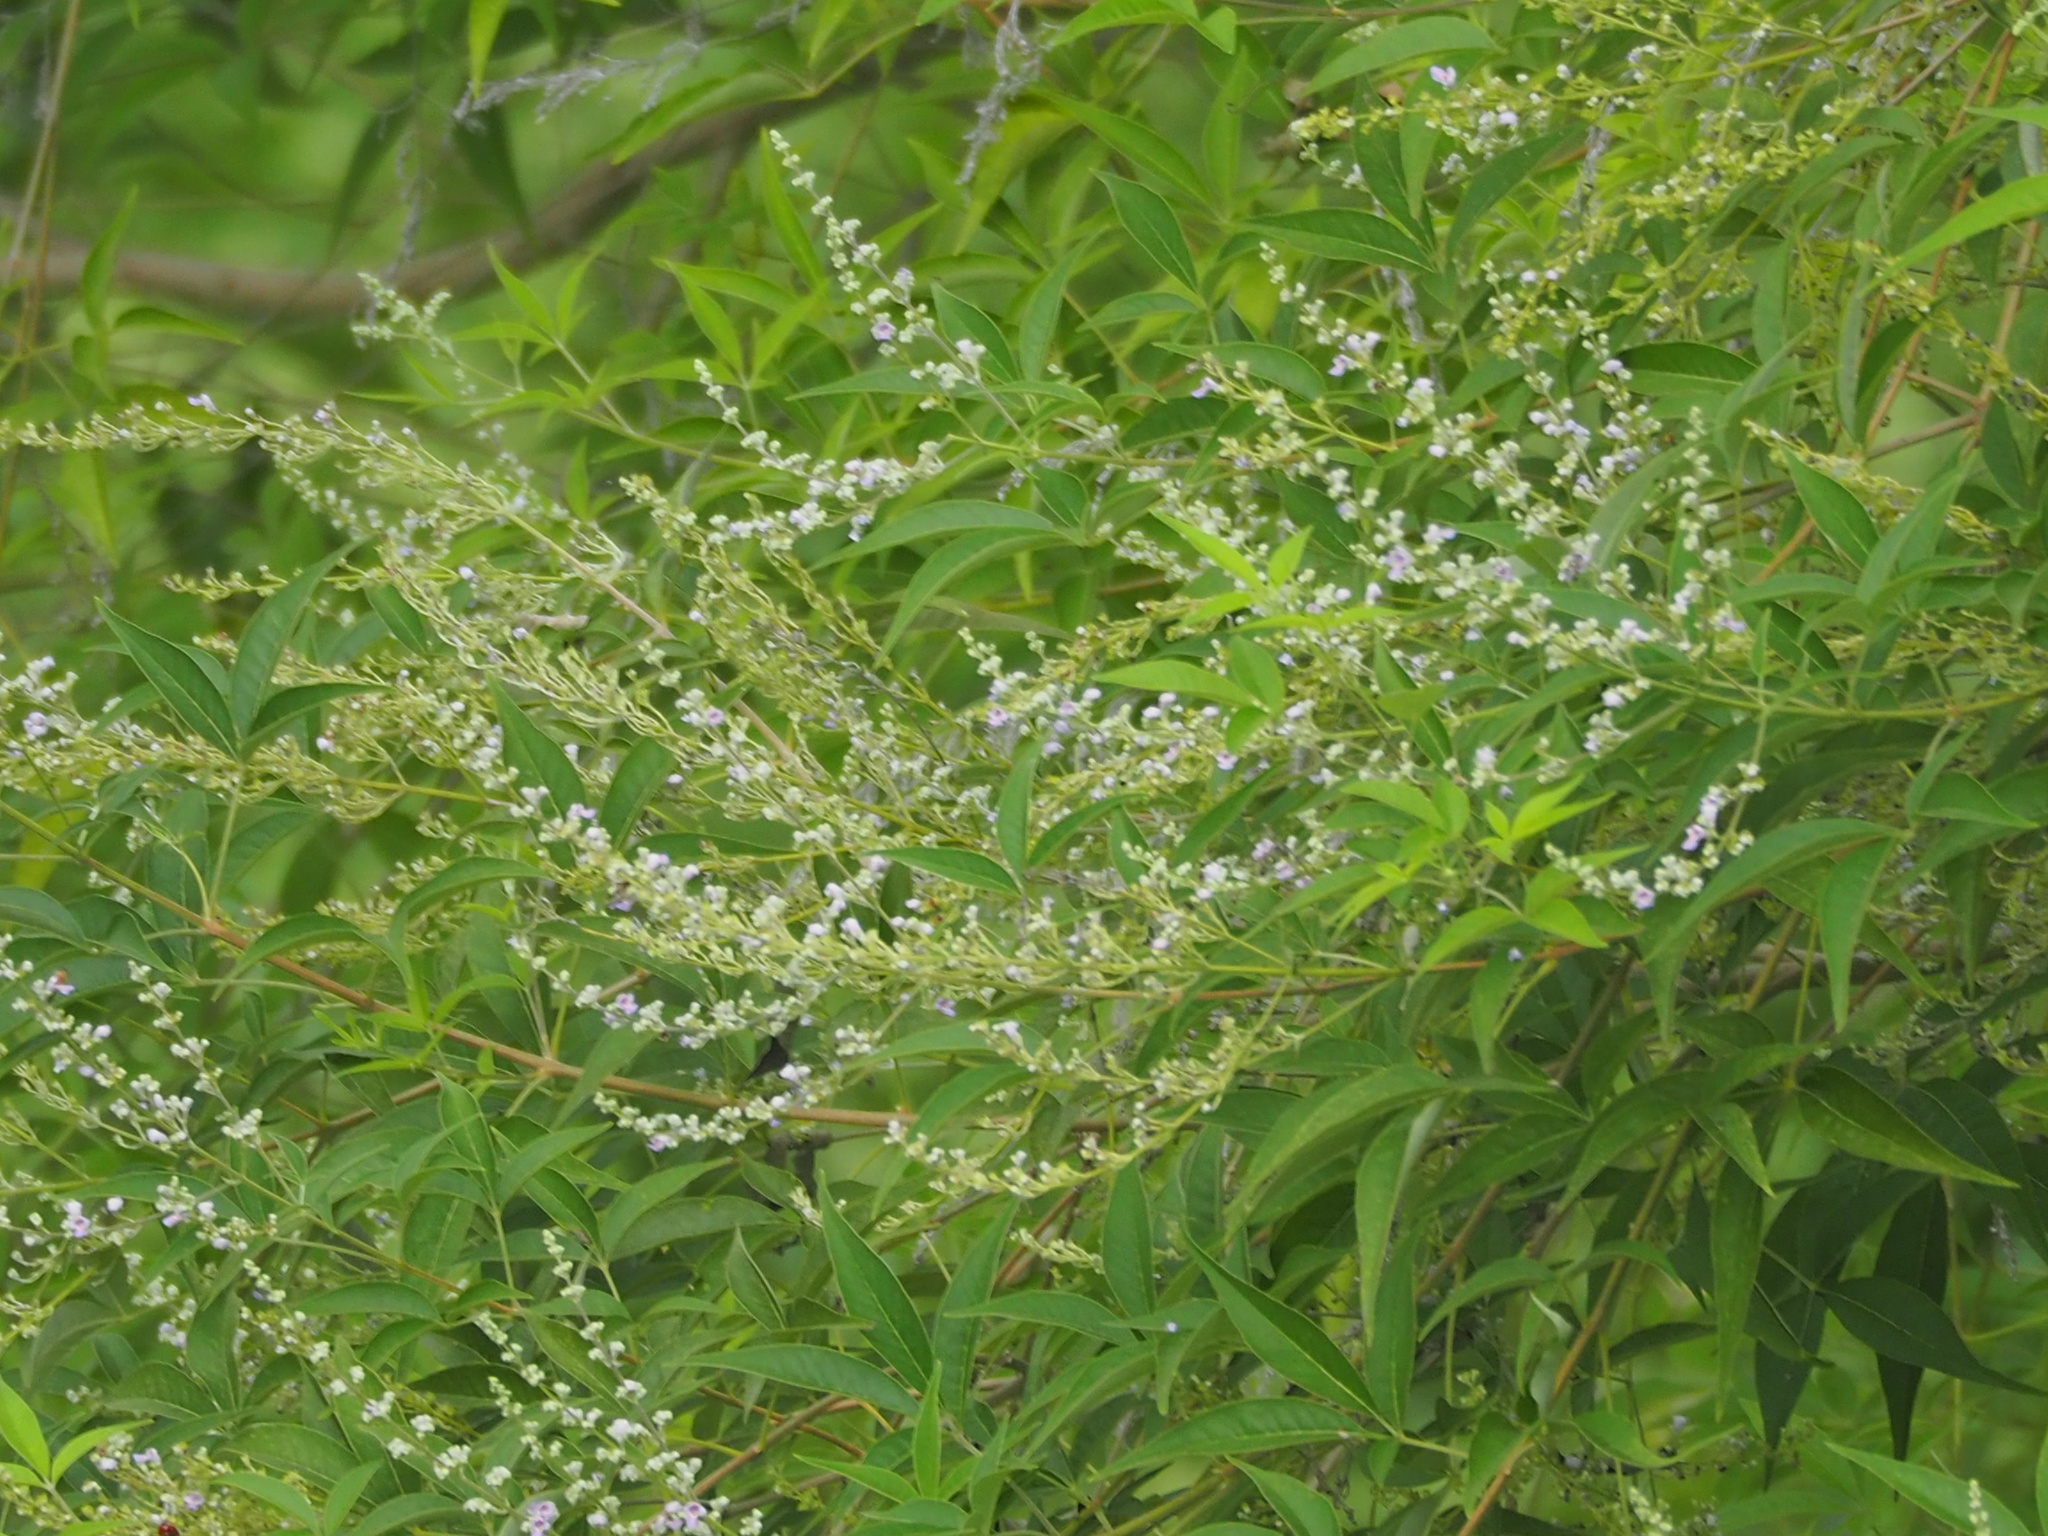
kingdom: Plantae
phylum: Tracheophyta
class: Magnoliopsida
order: Lamiales
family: Lamiaceae
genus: Vitex
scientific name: Vitex negundo
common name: Chinese chastetree
